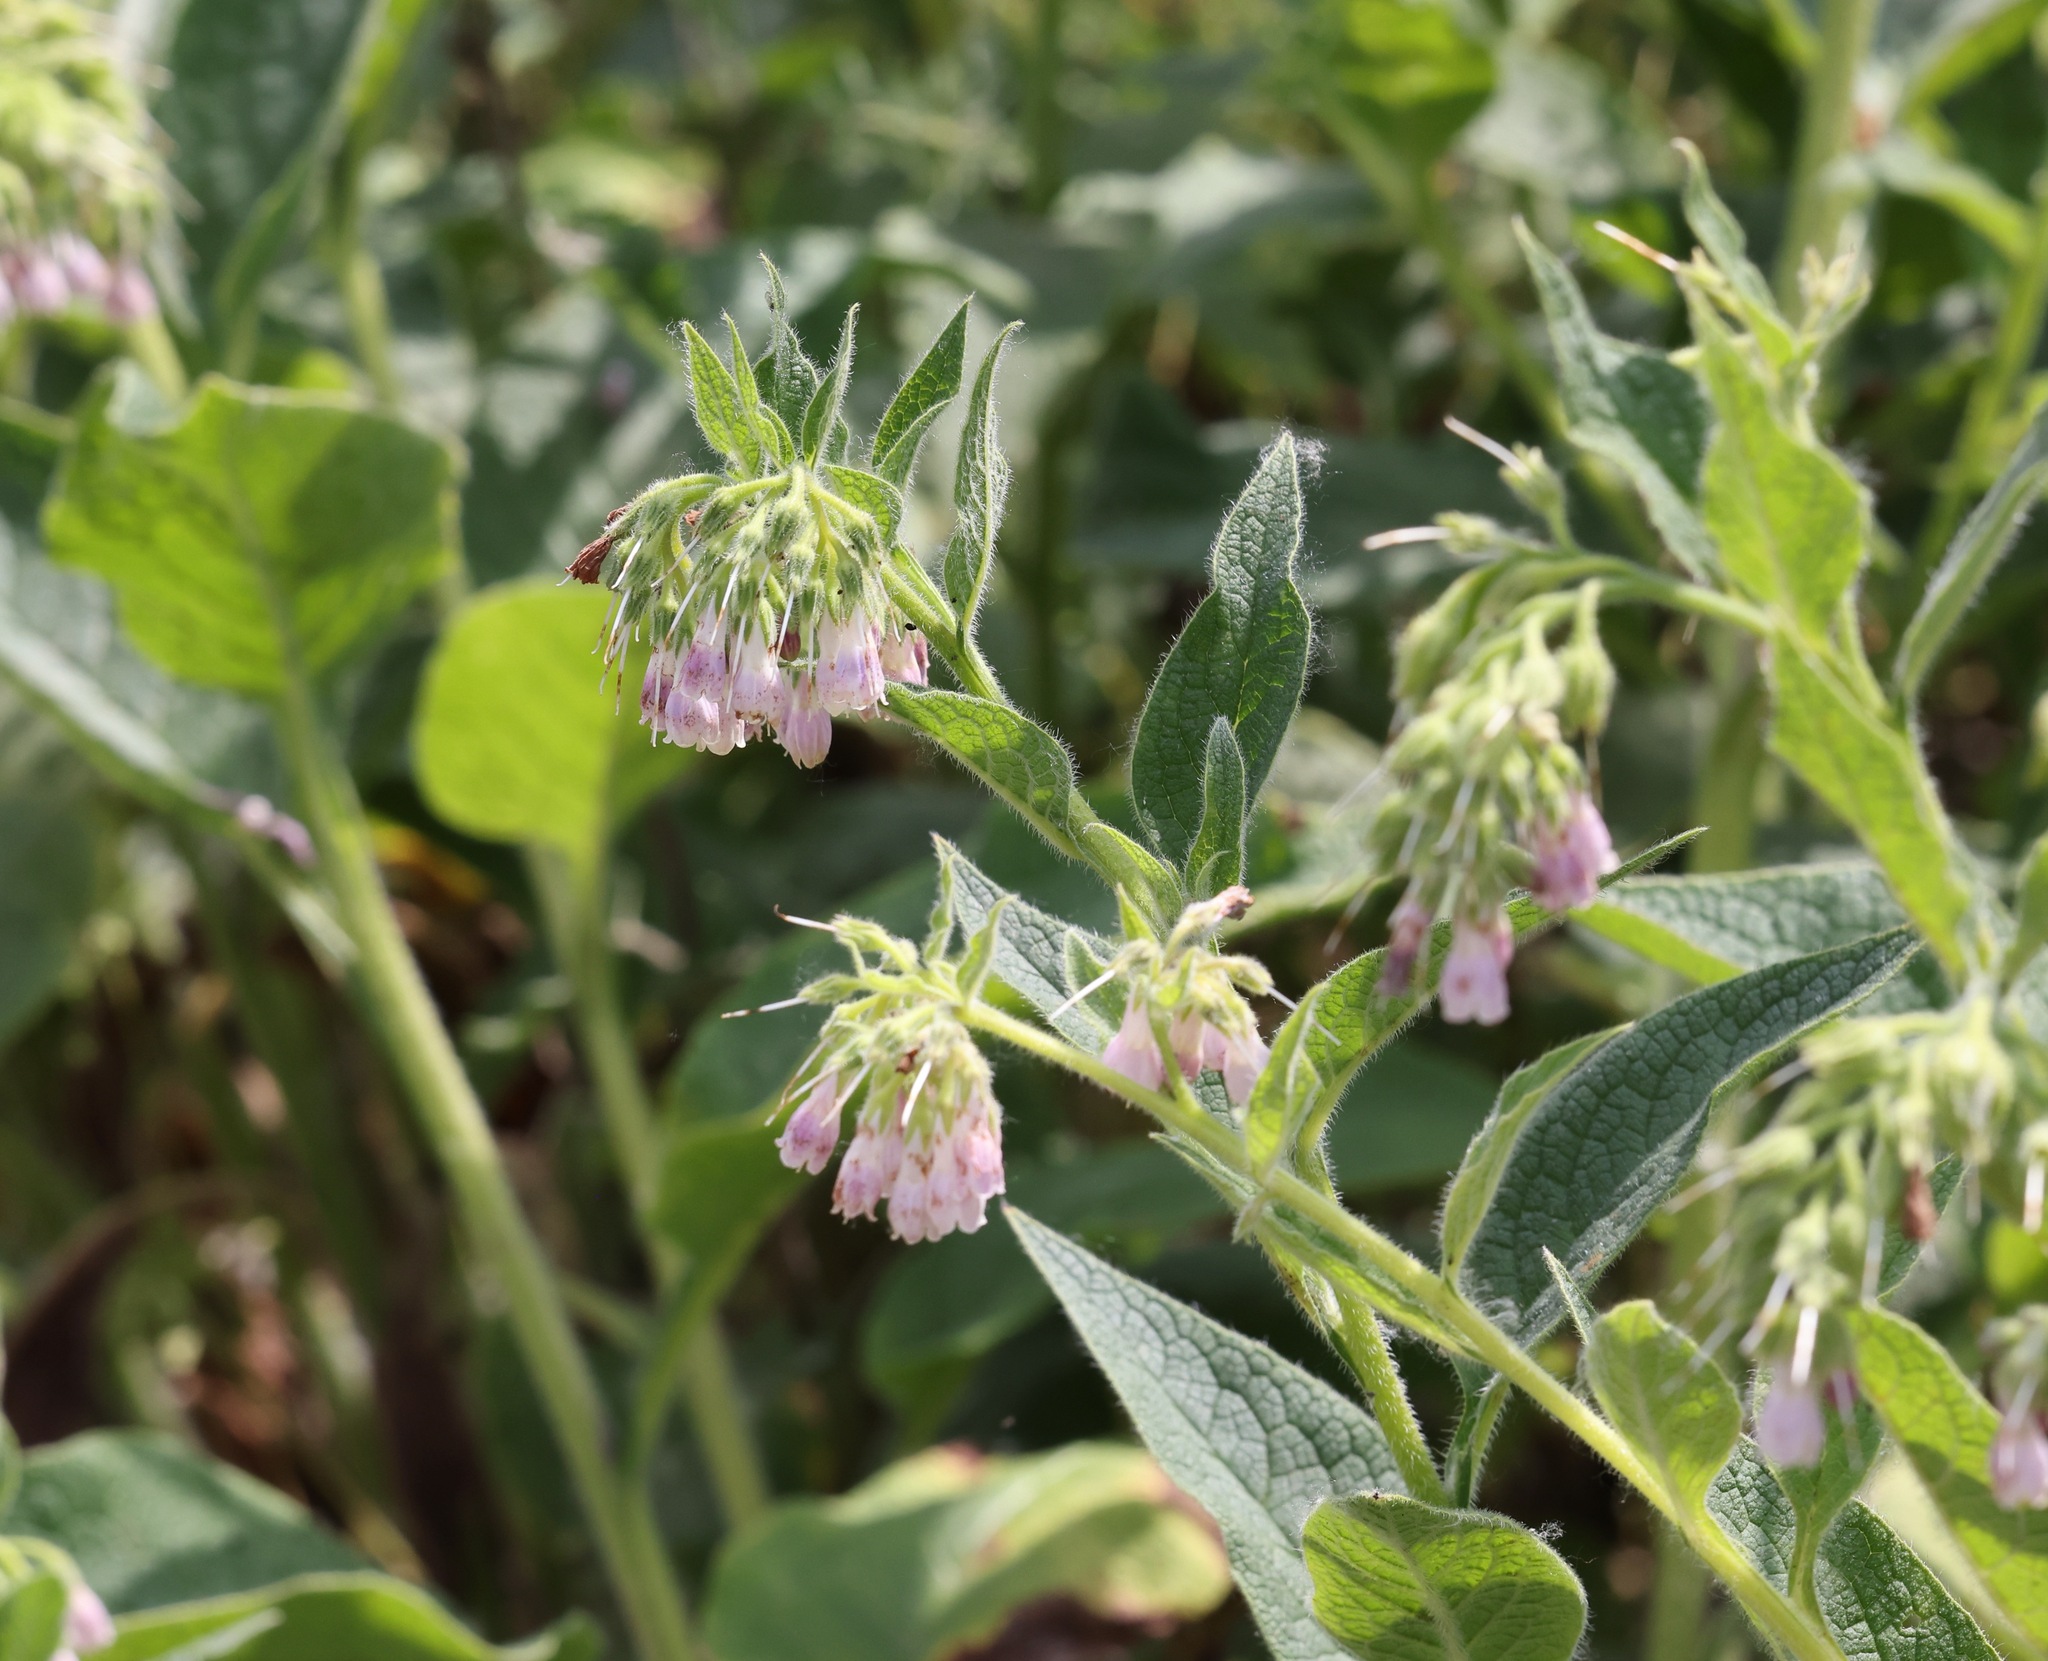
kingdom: Plantae
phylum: Tracheophyta
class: Magnoliopsida
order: Boraginales
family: Boraginaceae
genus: Symphytum
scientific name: Symphytum officinale
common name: Common comfrey
